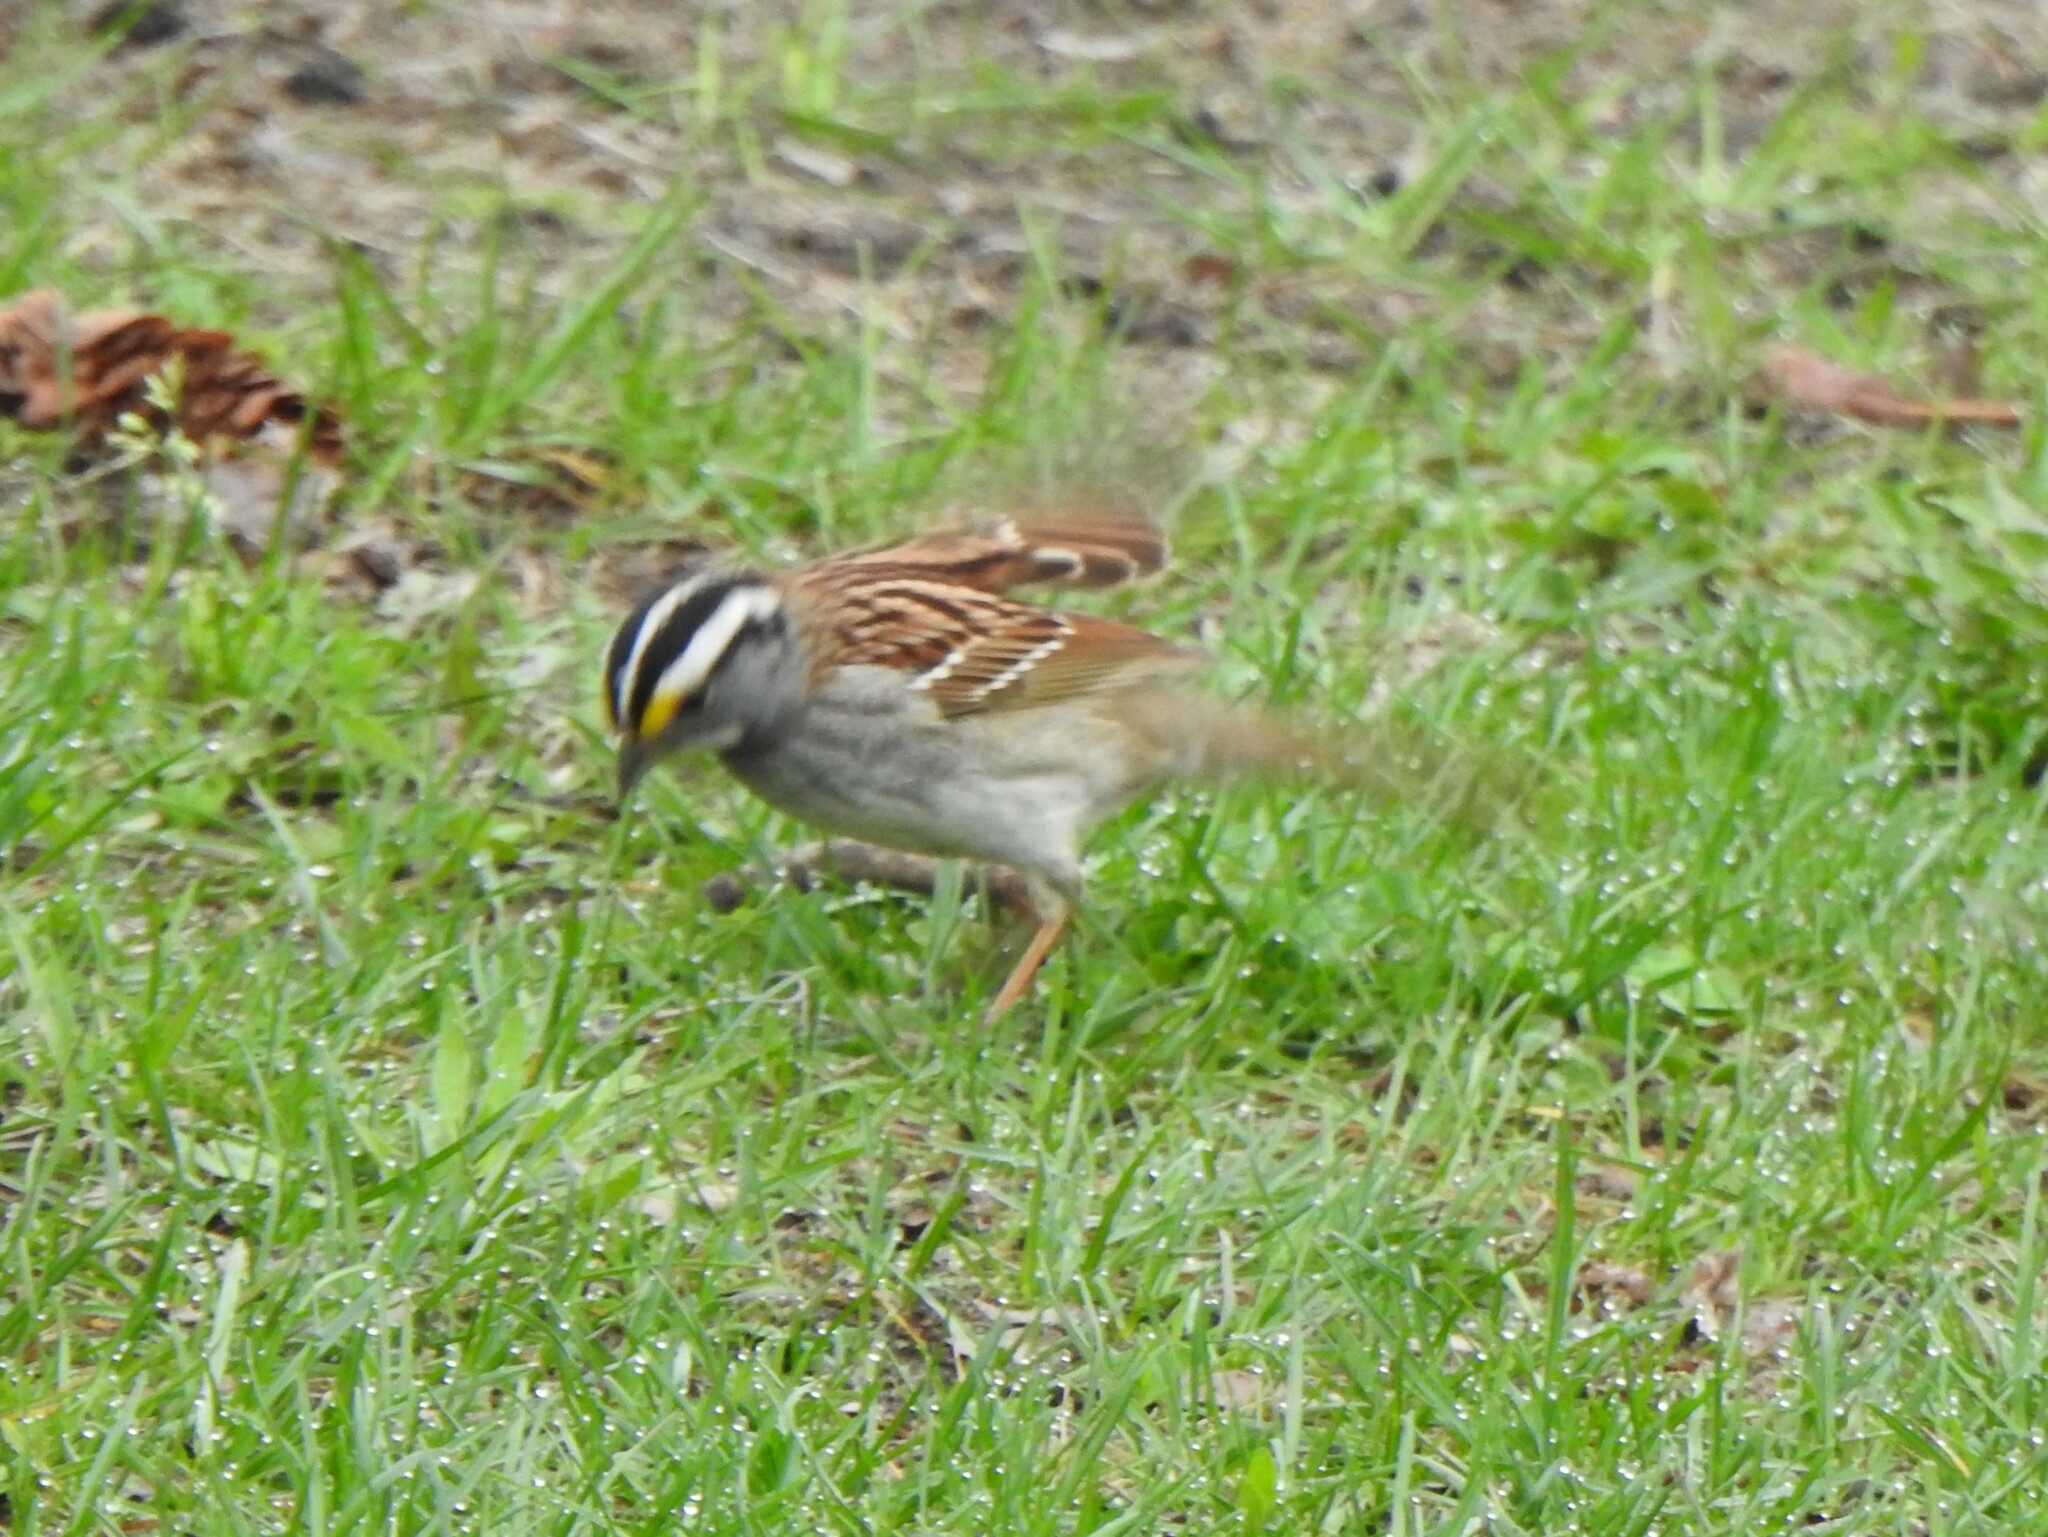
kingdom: Animalia
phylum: Chordata
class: Aves
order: Passeriformes
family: Passerellidae
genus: Zonotrichia
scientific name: Zonotrichia albicollis
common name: White-throated sparrow
